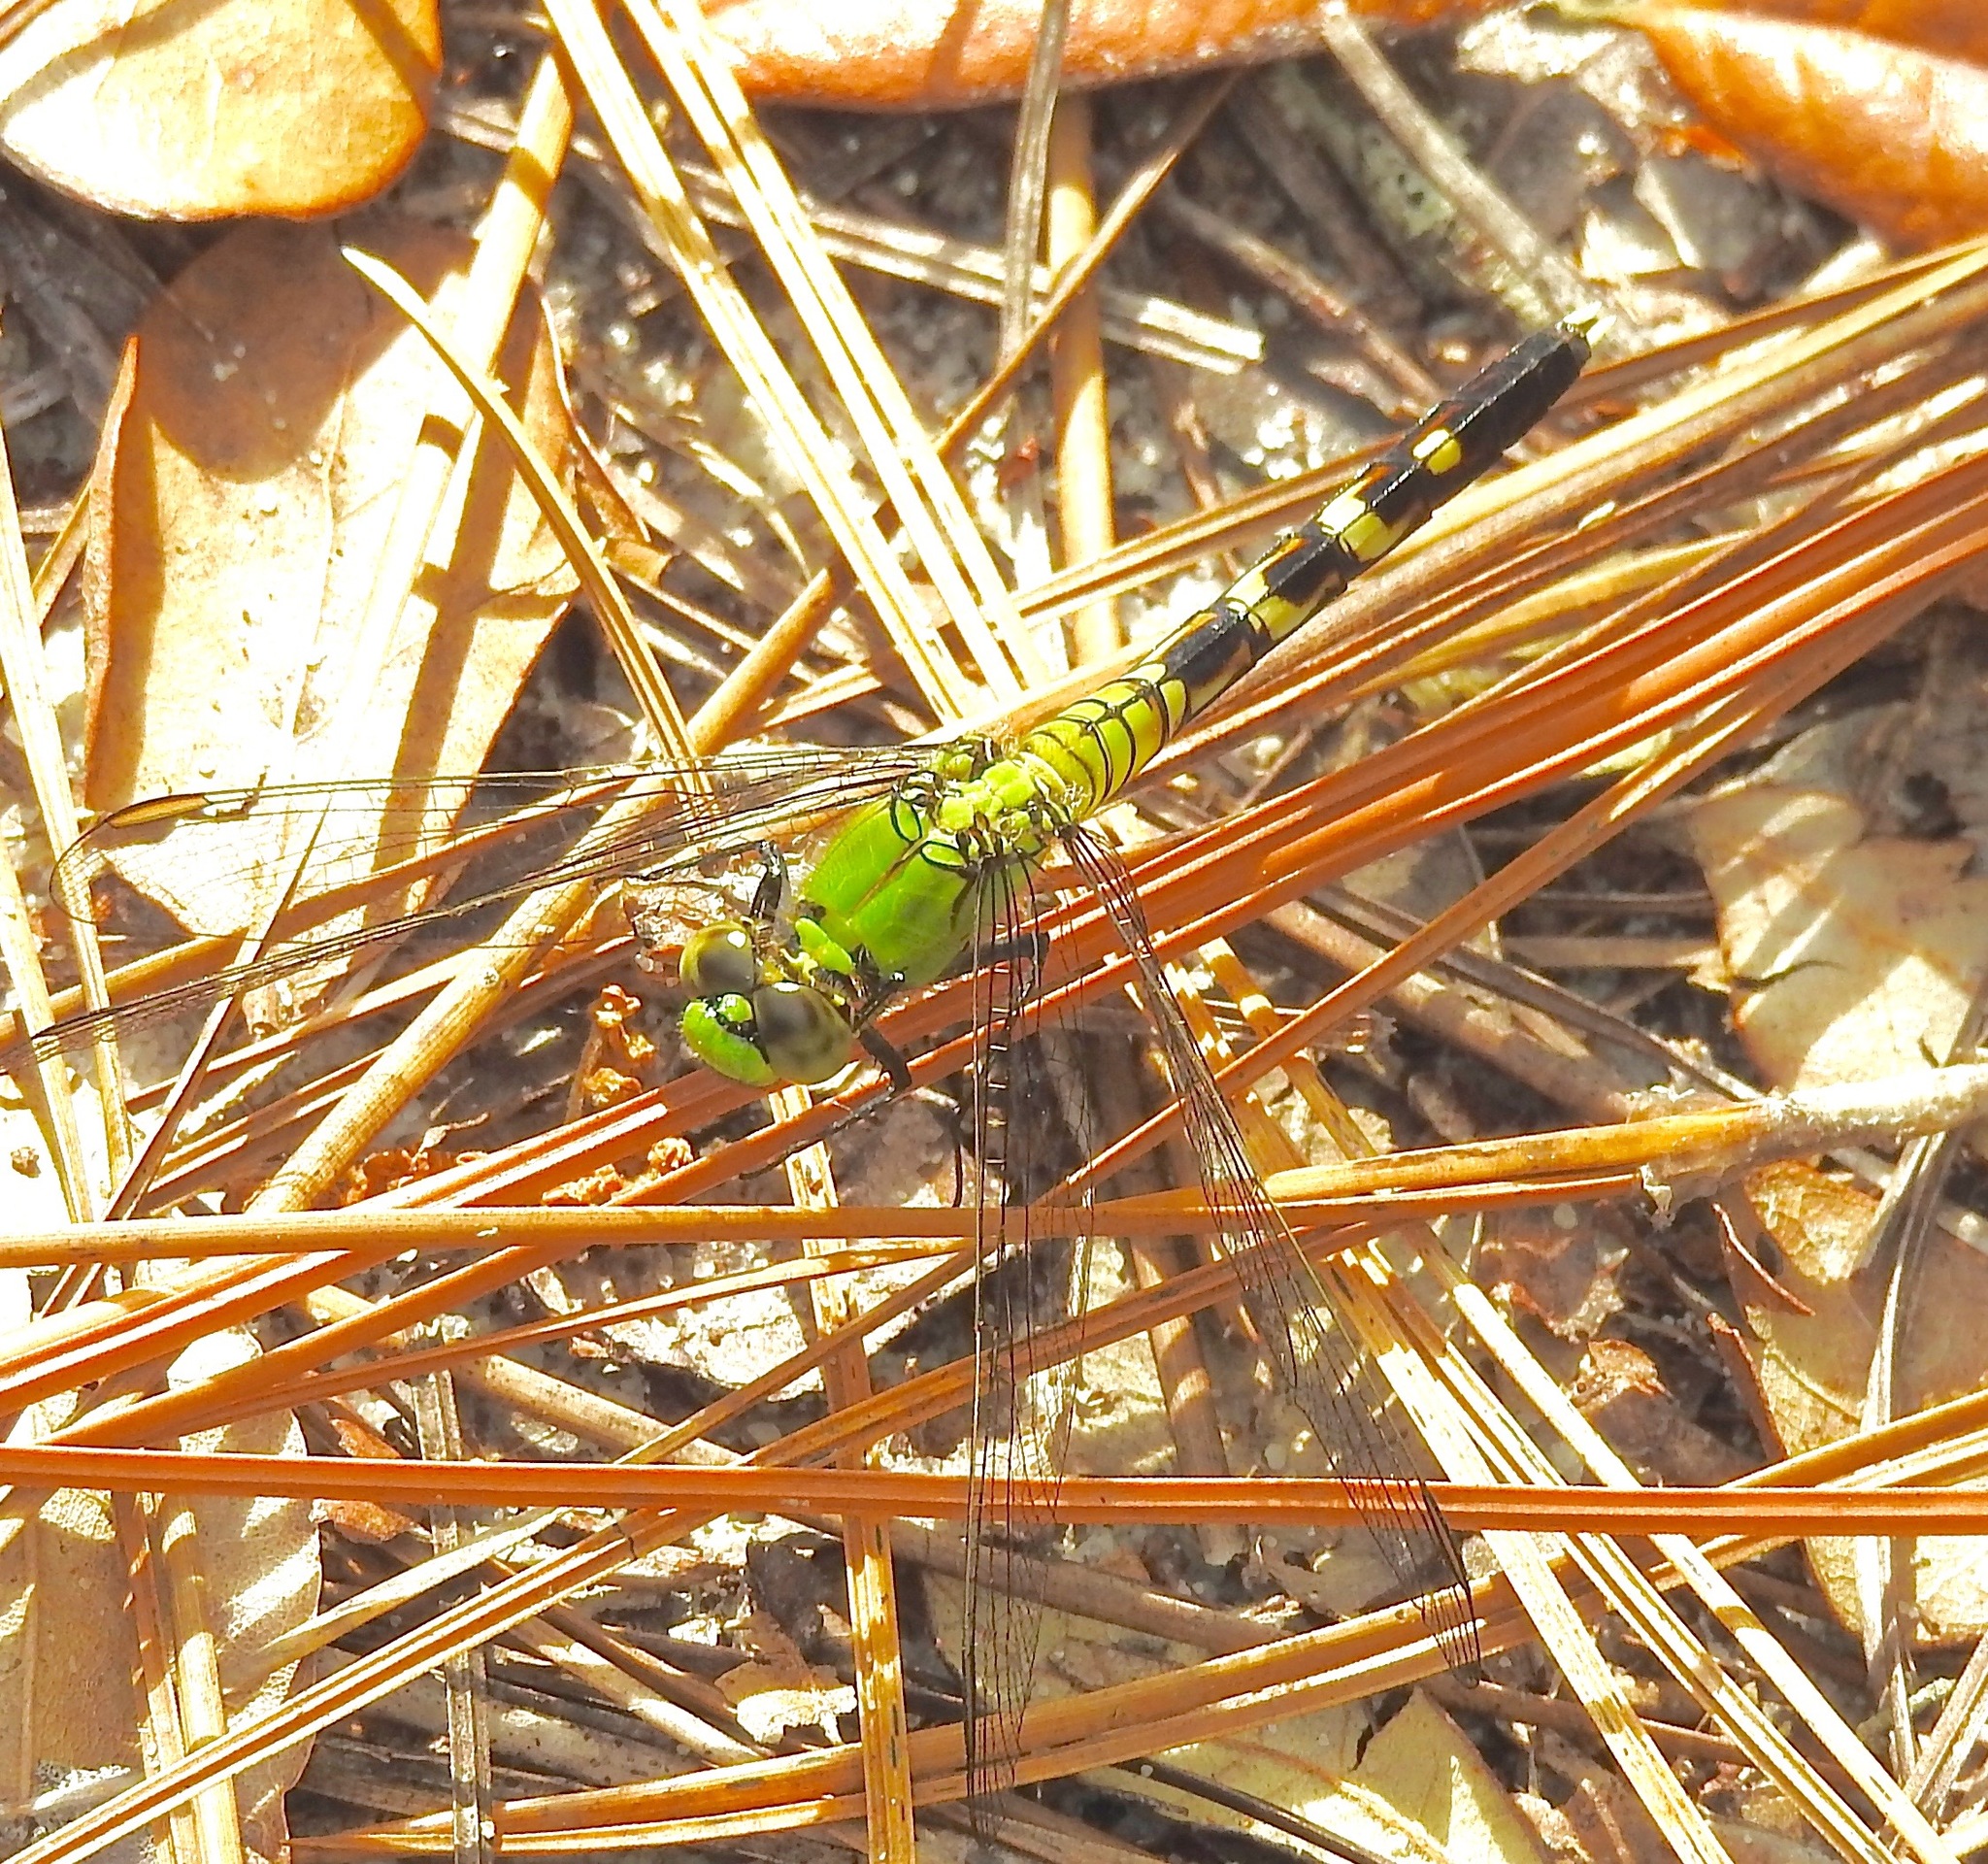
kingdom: Animalia
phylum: Arthropoda
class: Insecta
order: Odonata
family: Libellulidae
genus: Erythemis
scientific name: Erythemis simplicicollis
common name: Eastern pondhawk
